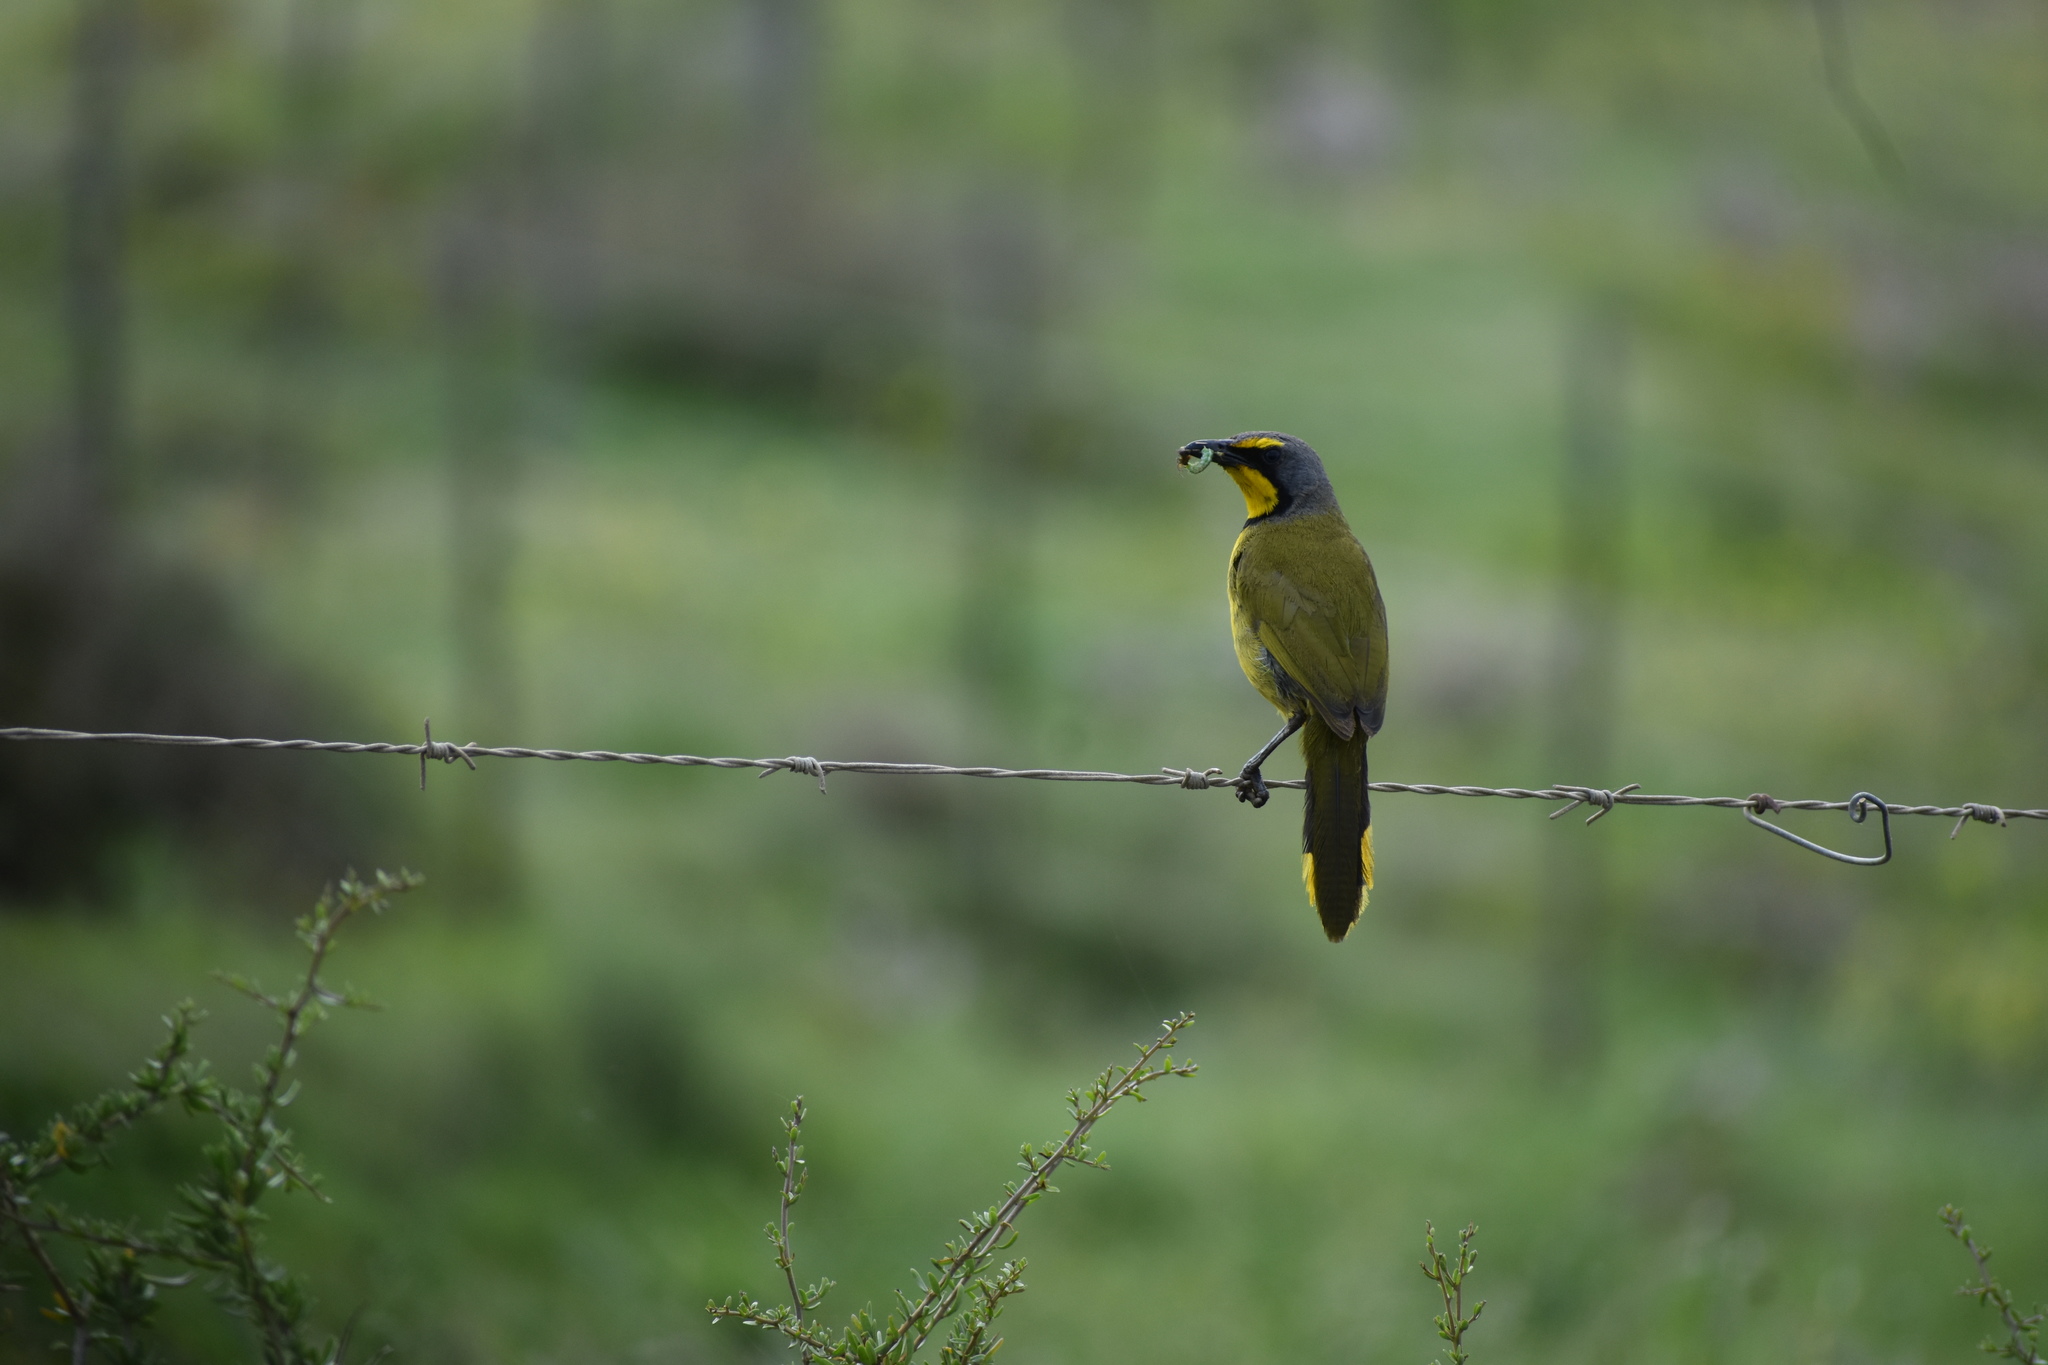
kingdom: Animalia
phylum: Chordata
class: Aves
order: Passeriformes
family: Malaconotidae
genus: Telophorus
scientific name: Telophorus zeylonus
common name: Bokmakierie
